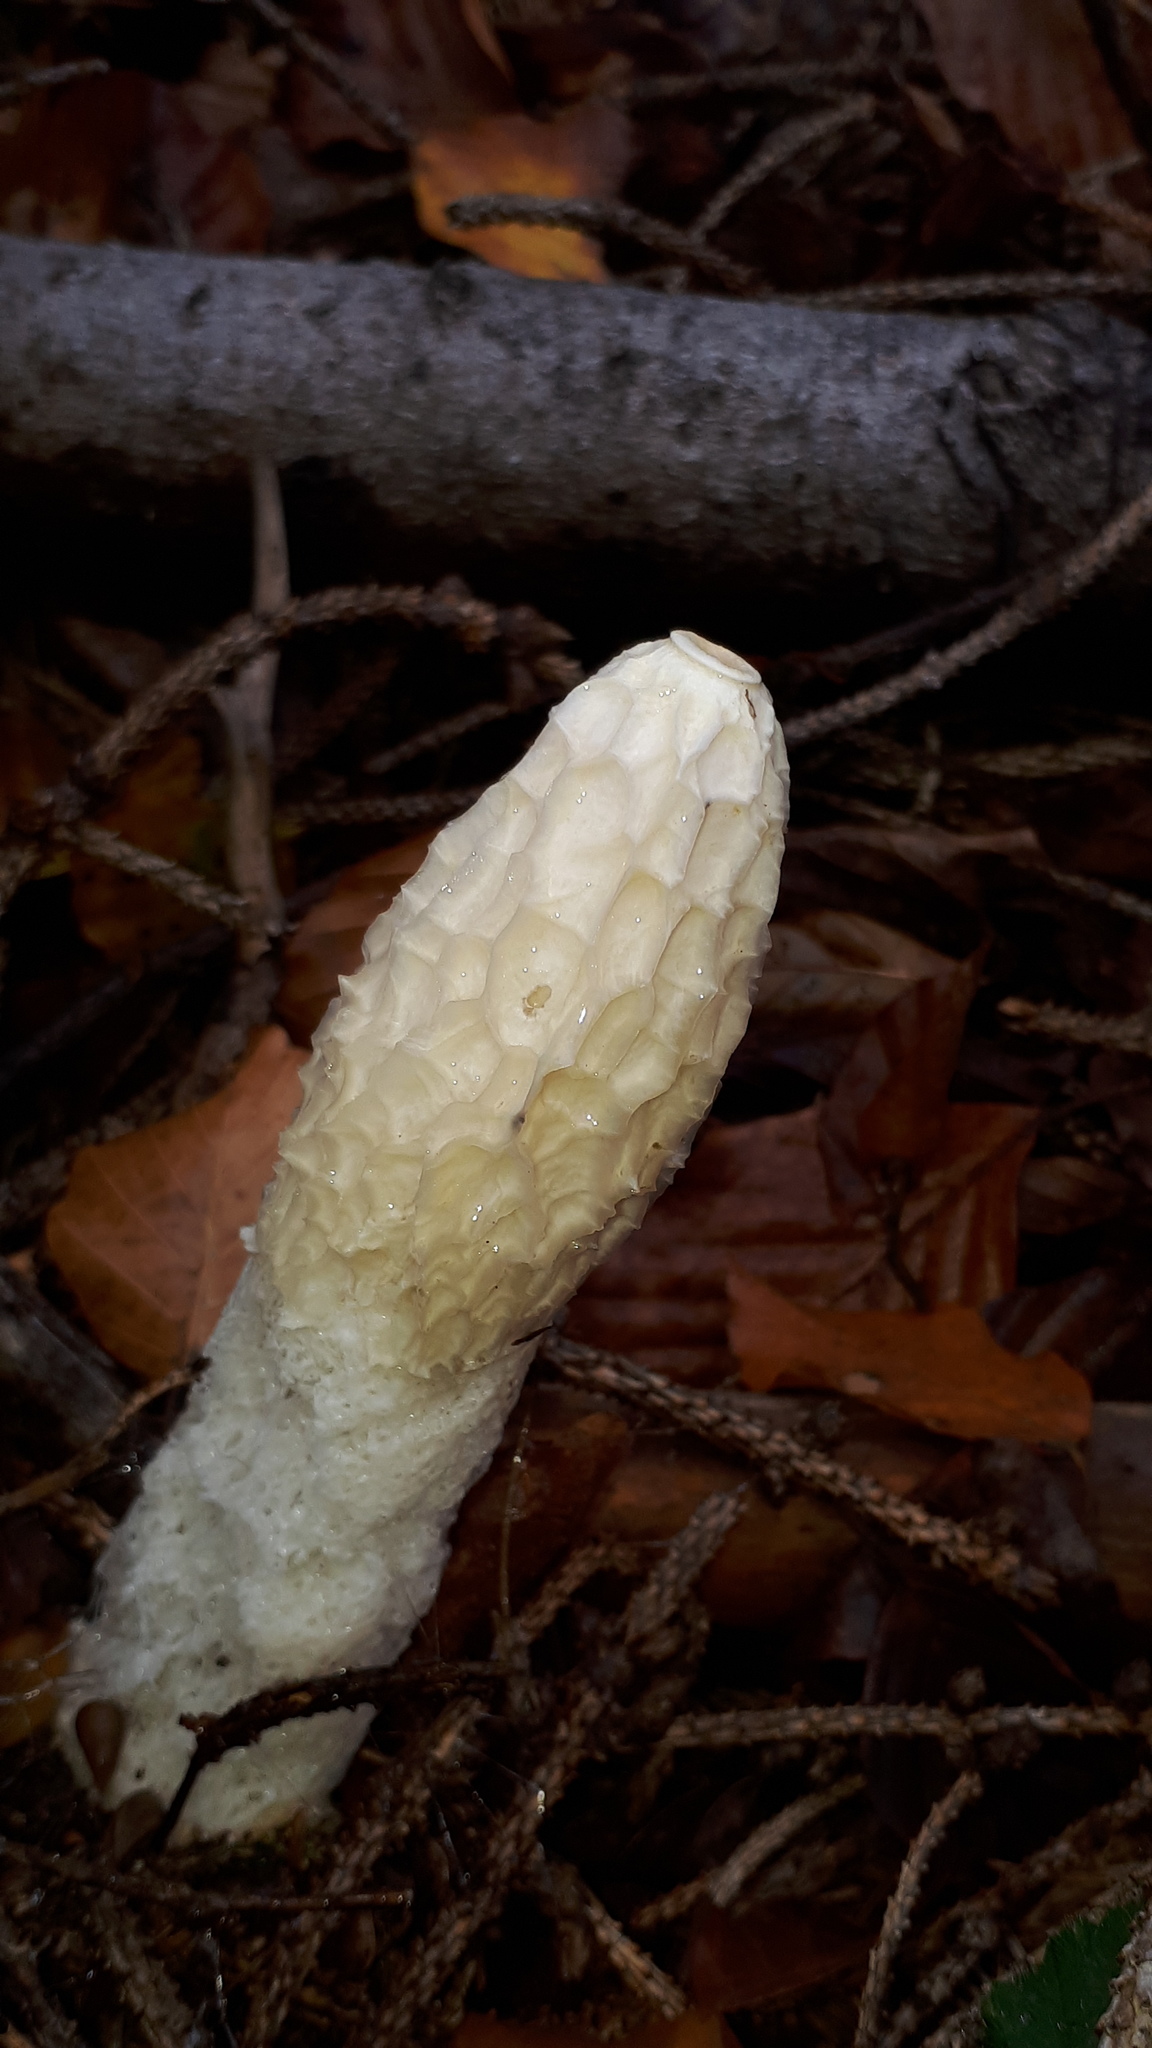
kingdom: Fungi
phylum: Basidiomycota
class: Agaricomycetes
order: Phallales
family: Phallaceae
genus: Phallus
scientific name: Phallus impudicus
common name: Common stinkhorn
